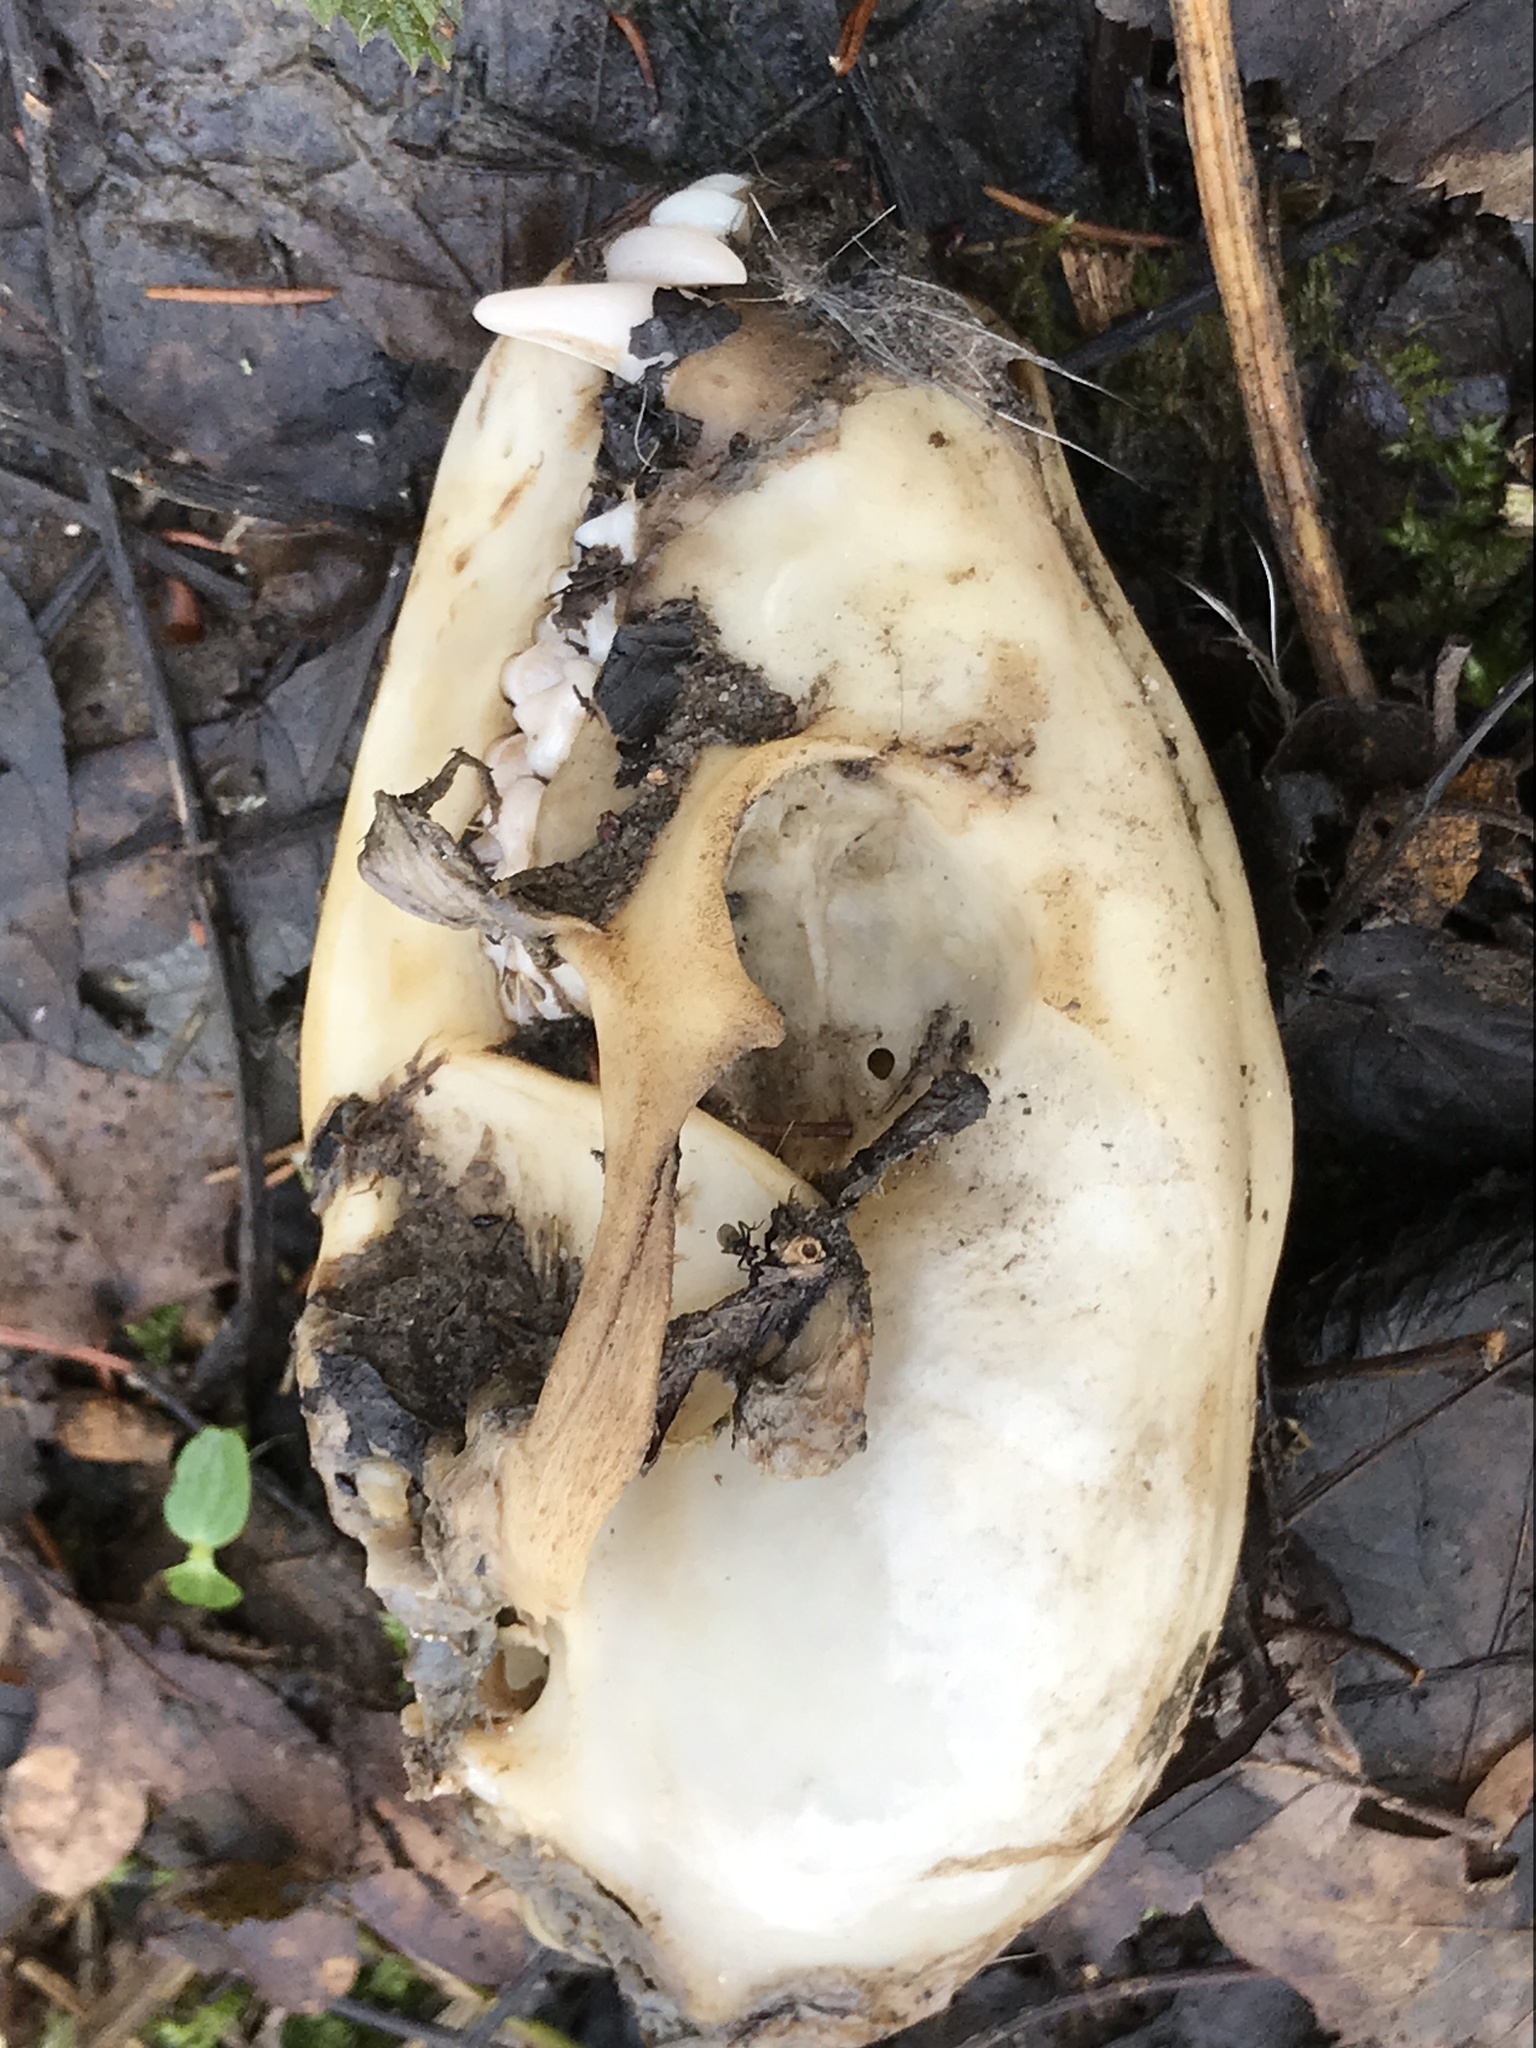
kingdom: Animalia
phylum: Chordata
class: Mammalia
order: Carnivora
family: Procyonidae
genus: Procyon
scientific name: Procyon lotor
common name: Raccoon
